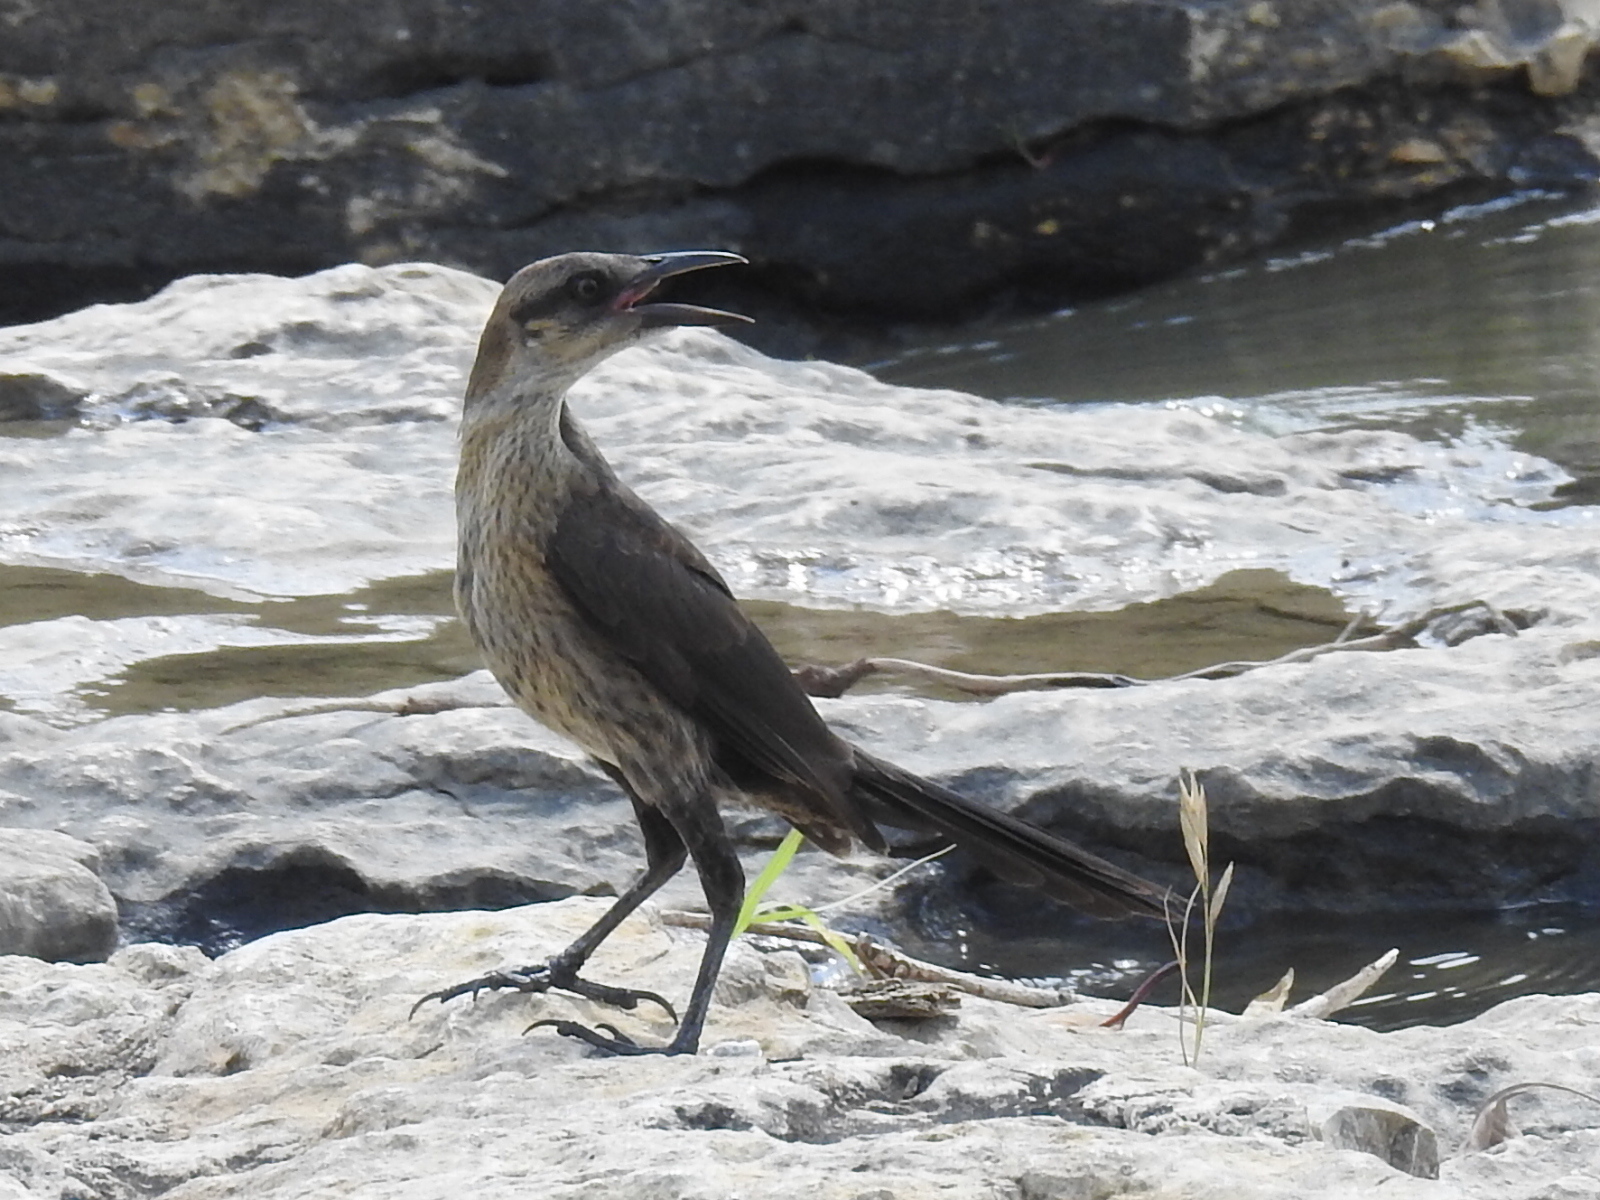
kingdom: Animalia
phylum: Chordata
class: Aves
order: Passeriformes
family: Icteridae
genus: Quiscalus
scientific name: Quiscalus mexicanus
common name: Great-tailed grackle
